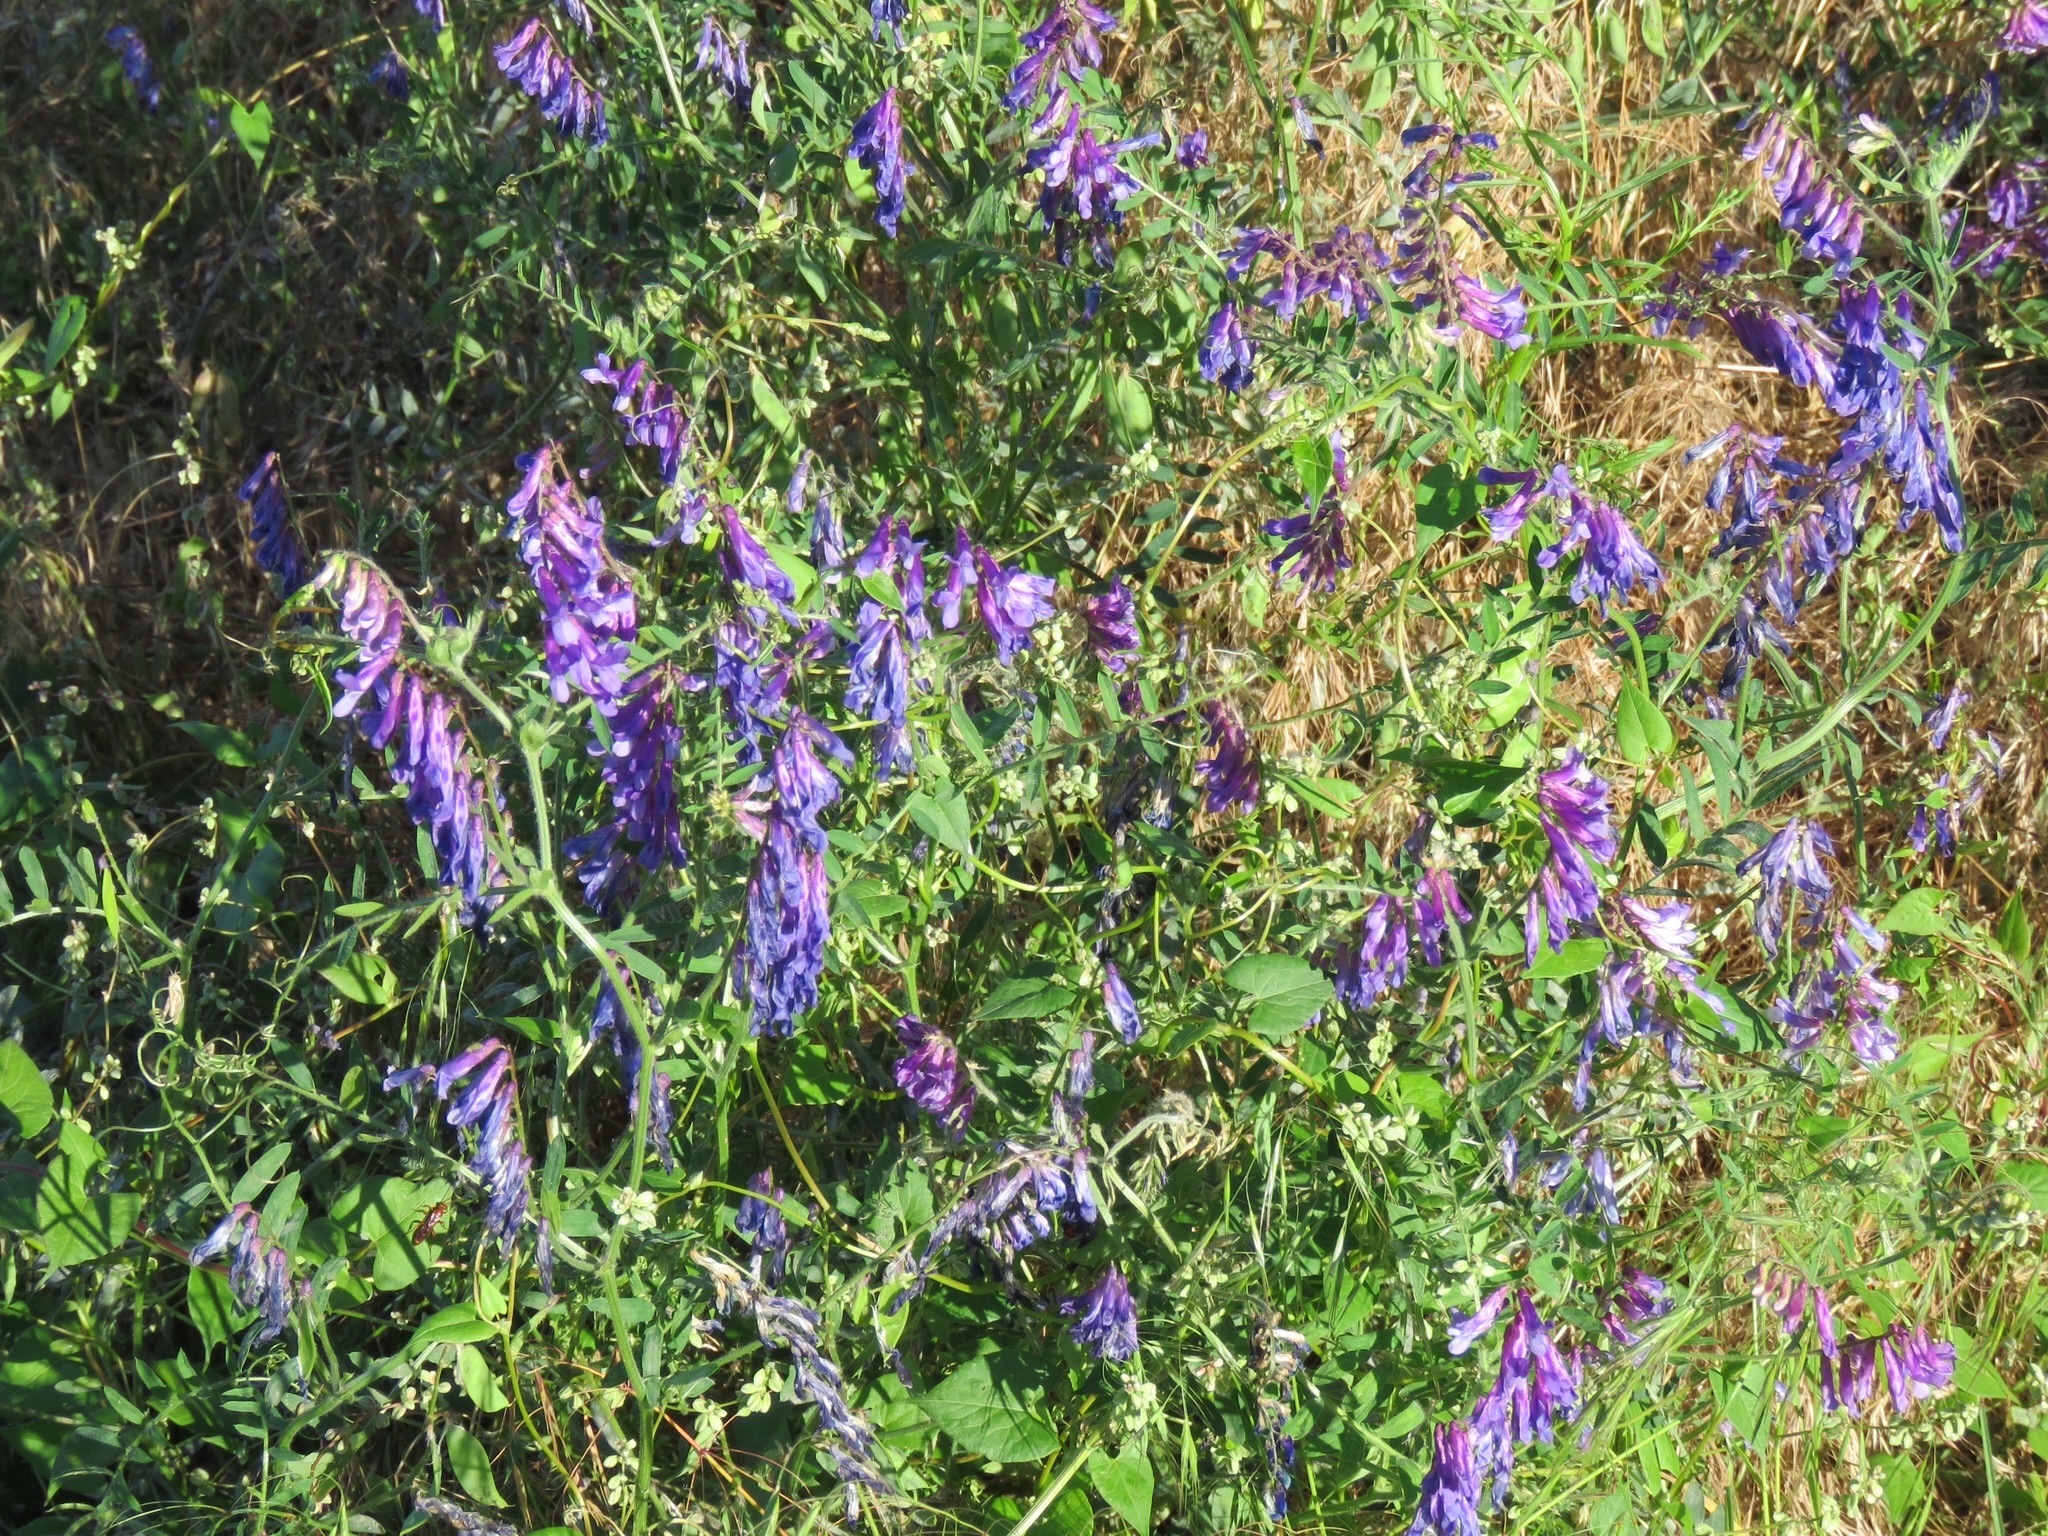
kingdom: Plantae
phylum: Tracheophyta
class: Magnoliopsida
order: Fabales
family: Fabaceae
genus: Vicia
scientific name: Vicia villosa
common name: Fodder vetch
